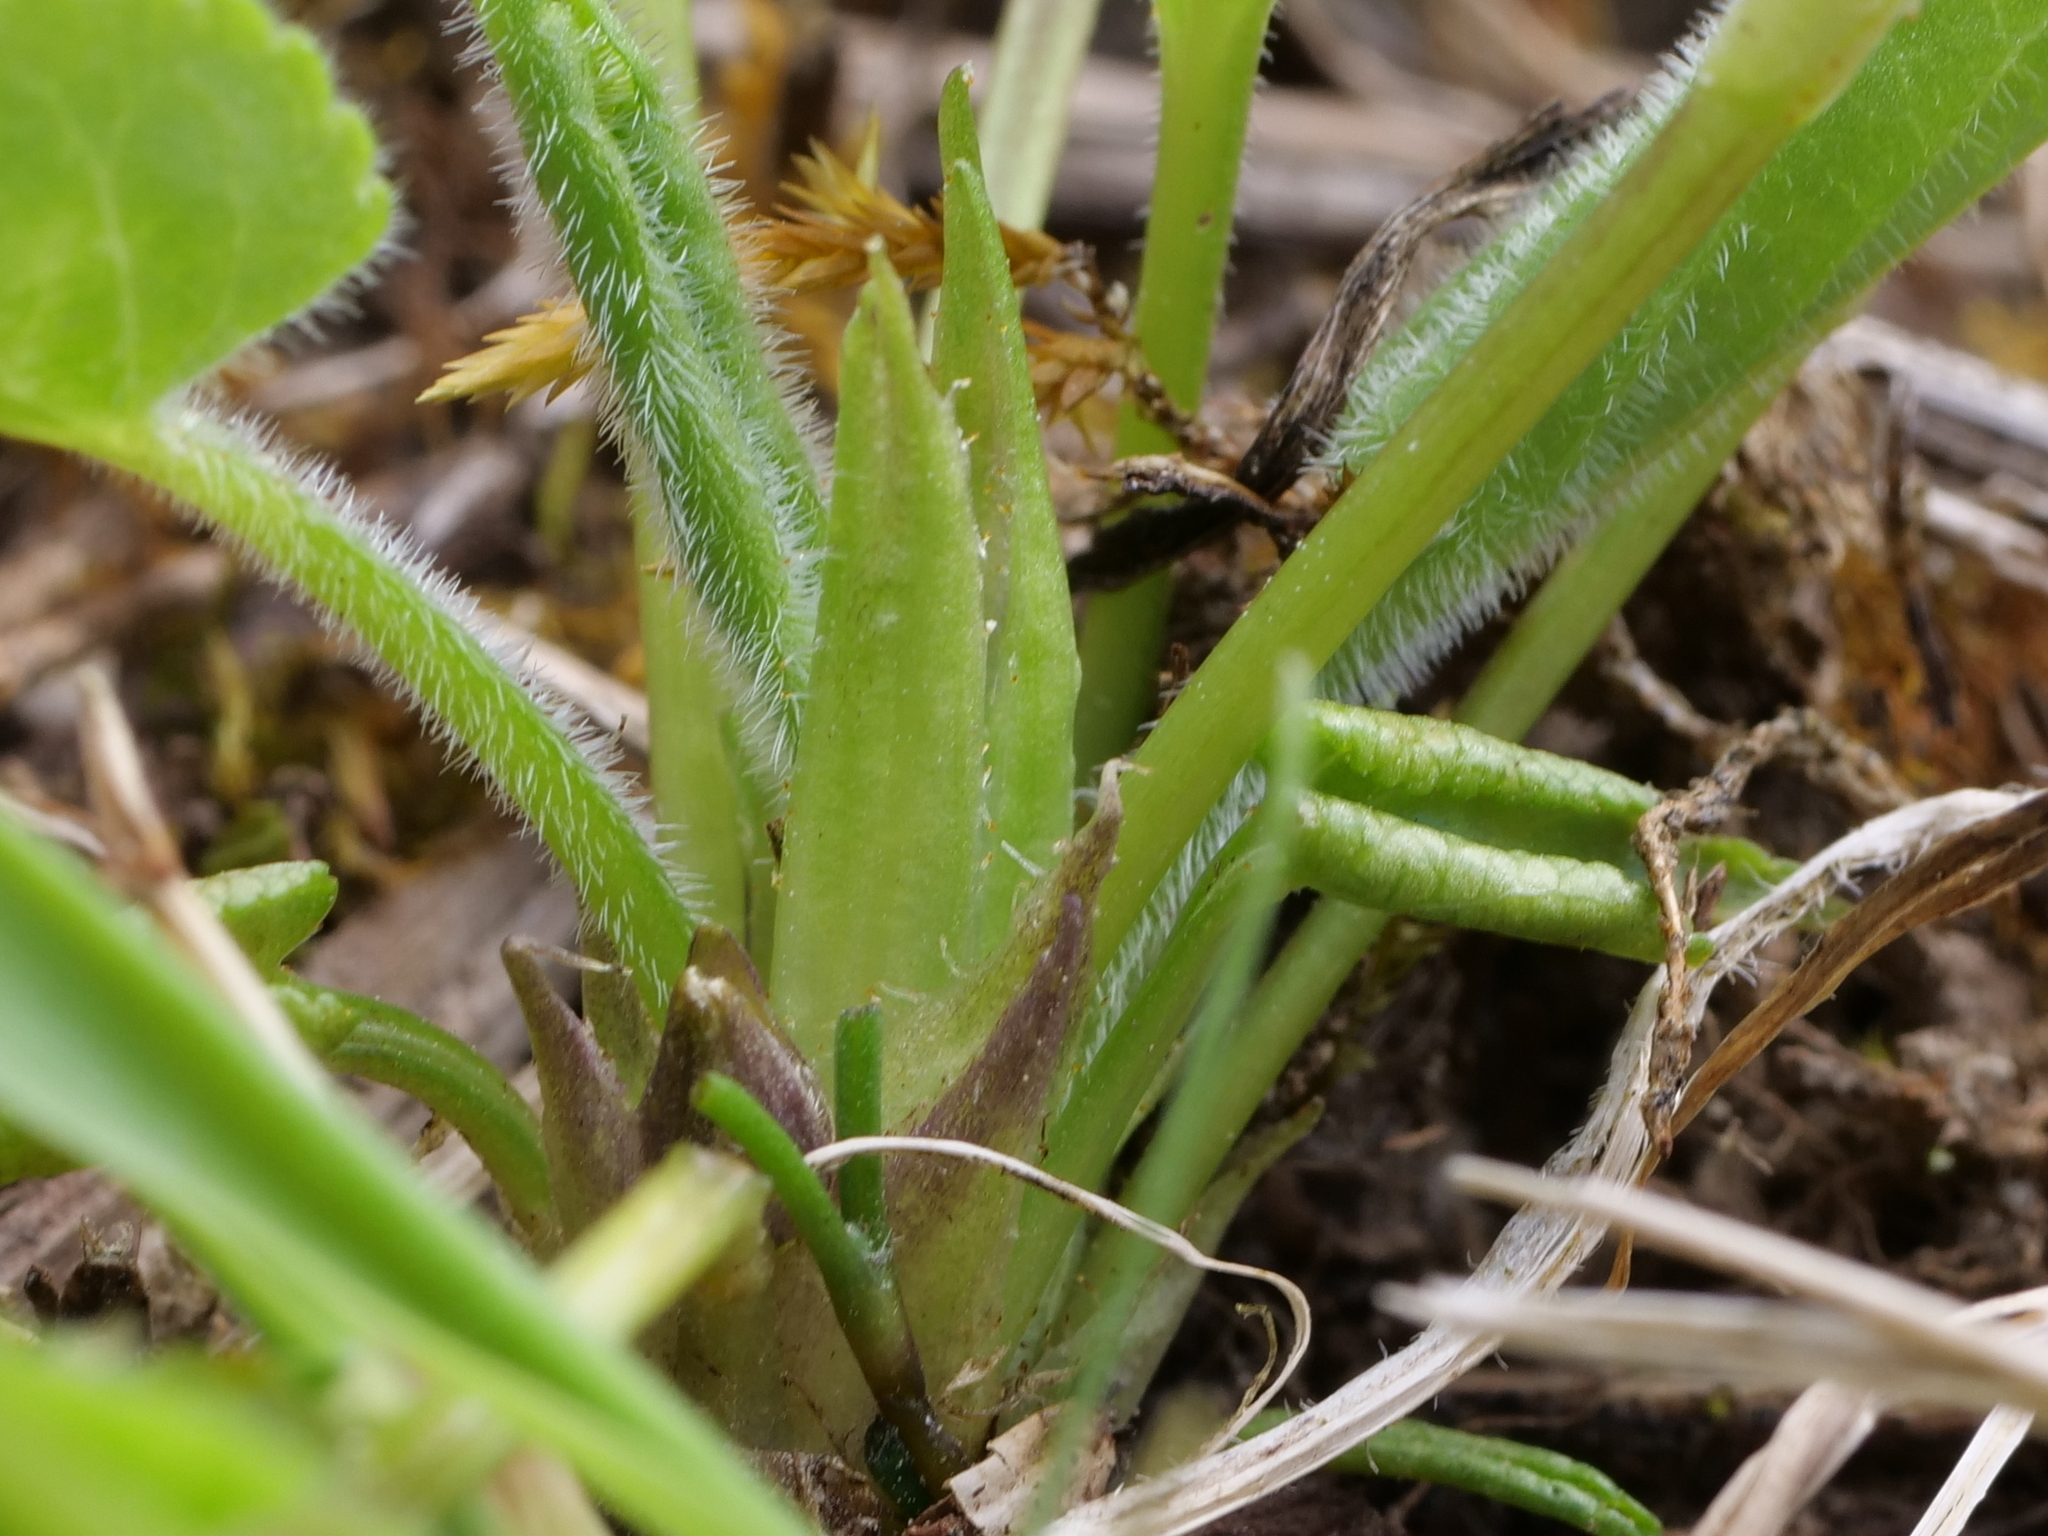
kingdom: Plantae
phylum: Tracheophyta
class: Magnoliopsida
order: Malpighiales
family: Violaceae
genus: Viola
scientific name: Viola hirta
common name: Hairy violet
